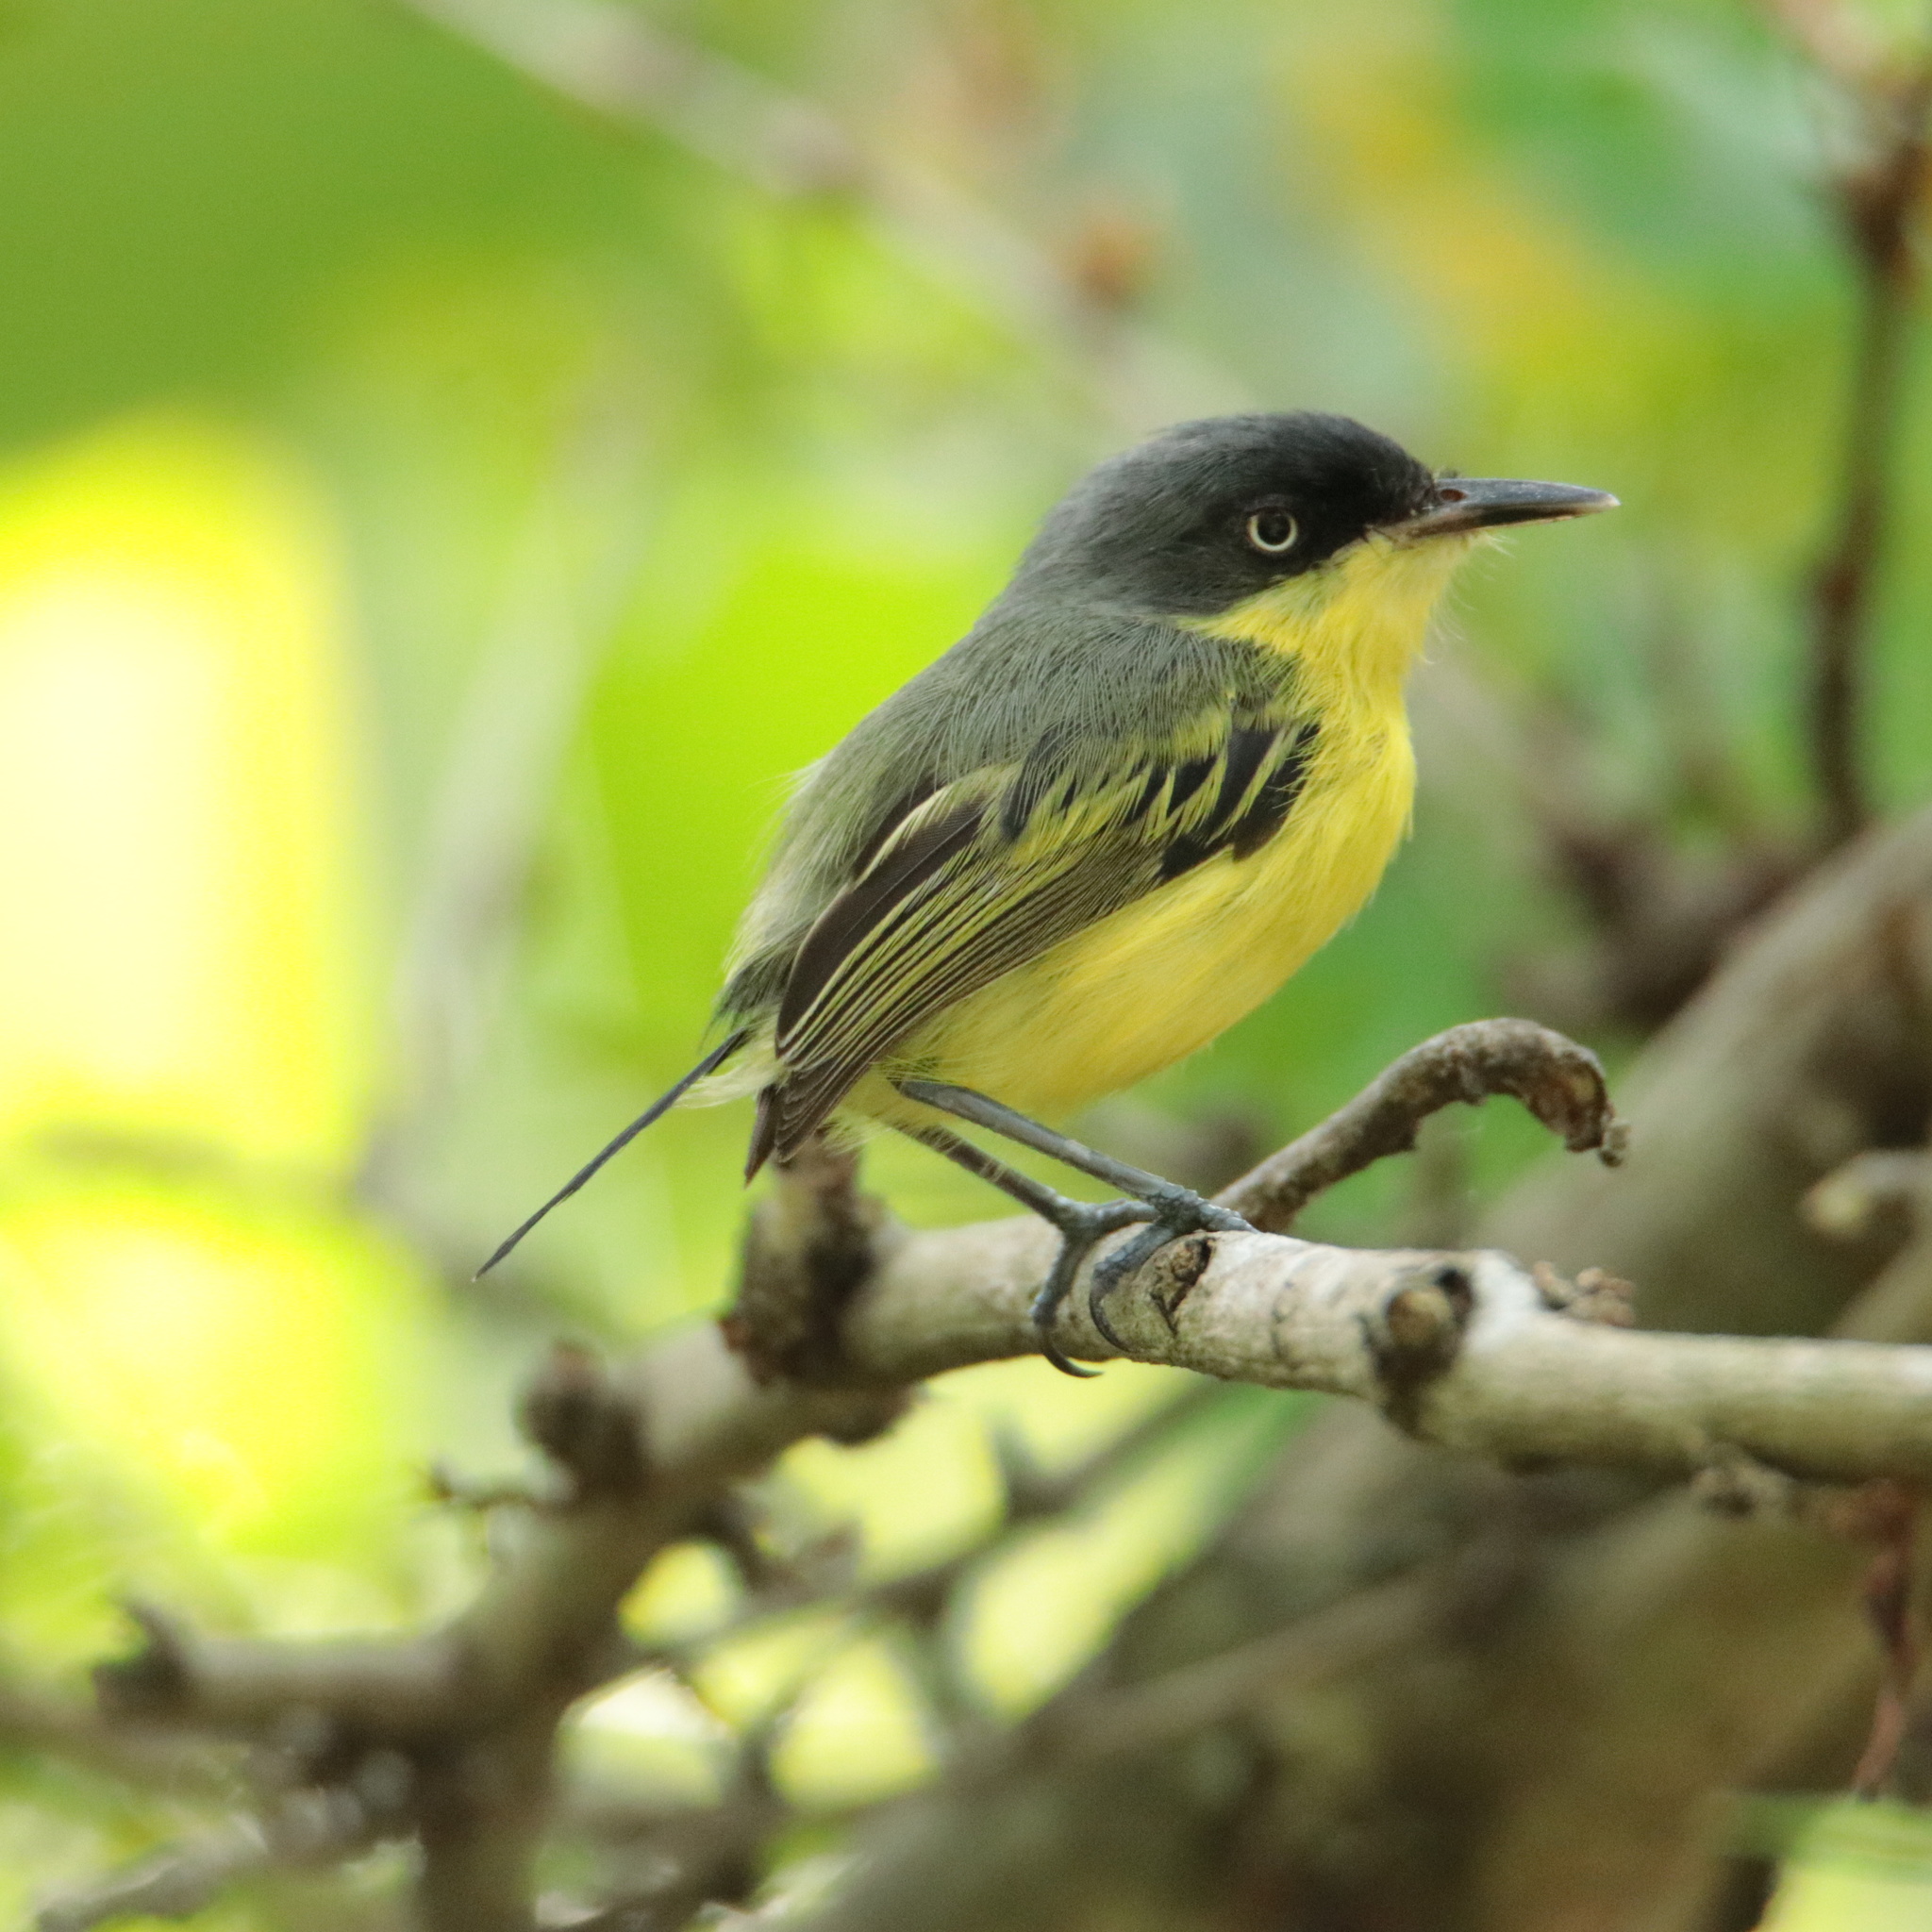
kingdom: Animalia
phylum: Chordata
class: Aves
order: Passeriformes
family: Tyrannidae
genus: Todirostrum
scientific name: Todirostrum cinereum
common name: Common tody-flycatcher
